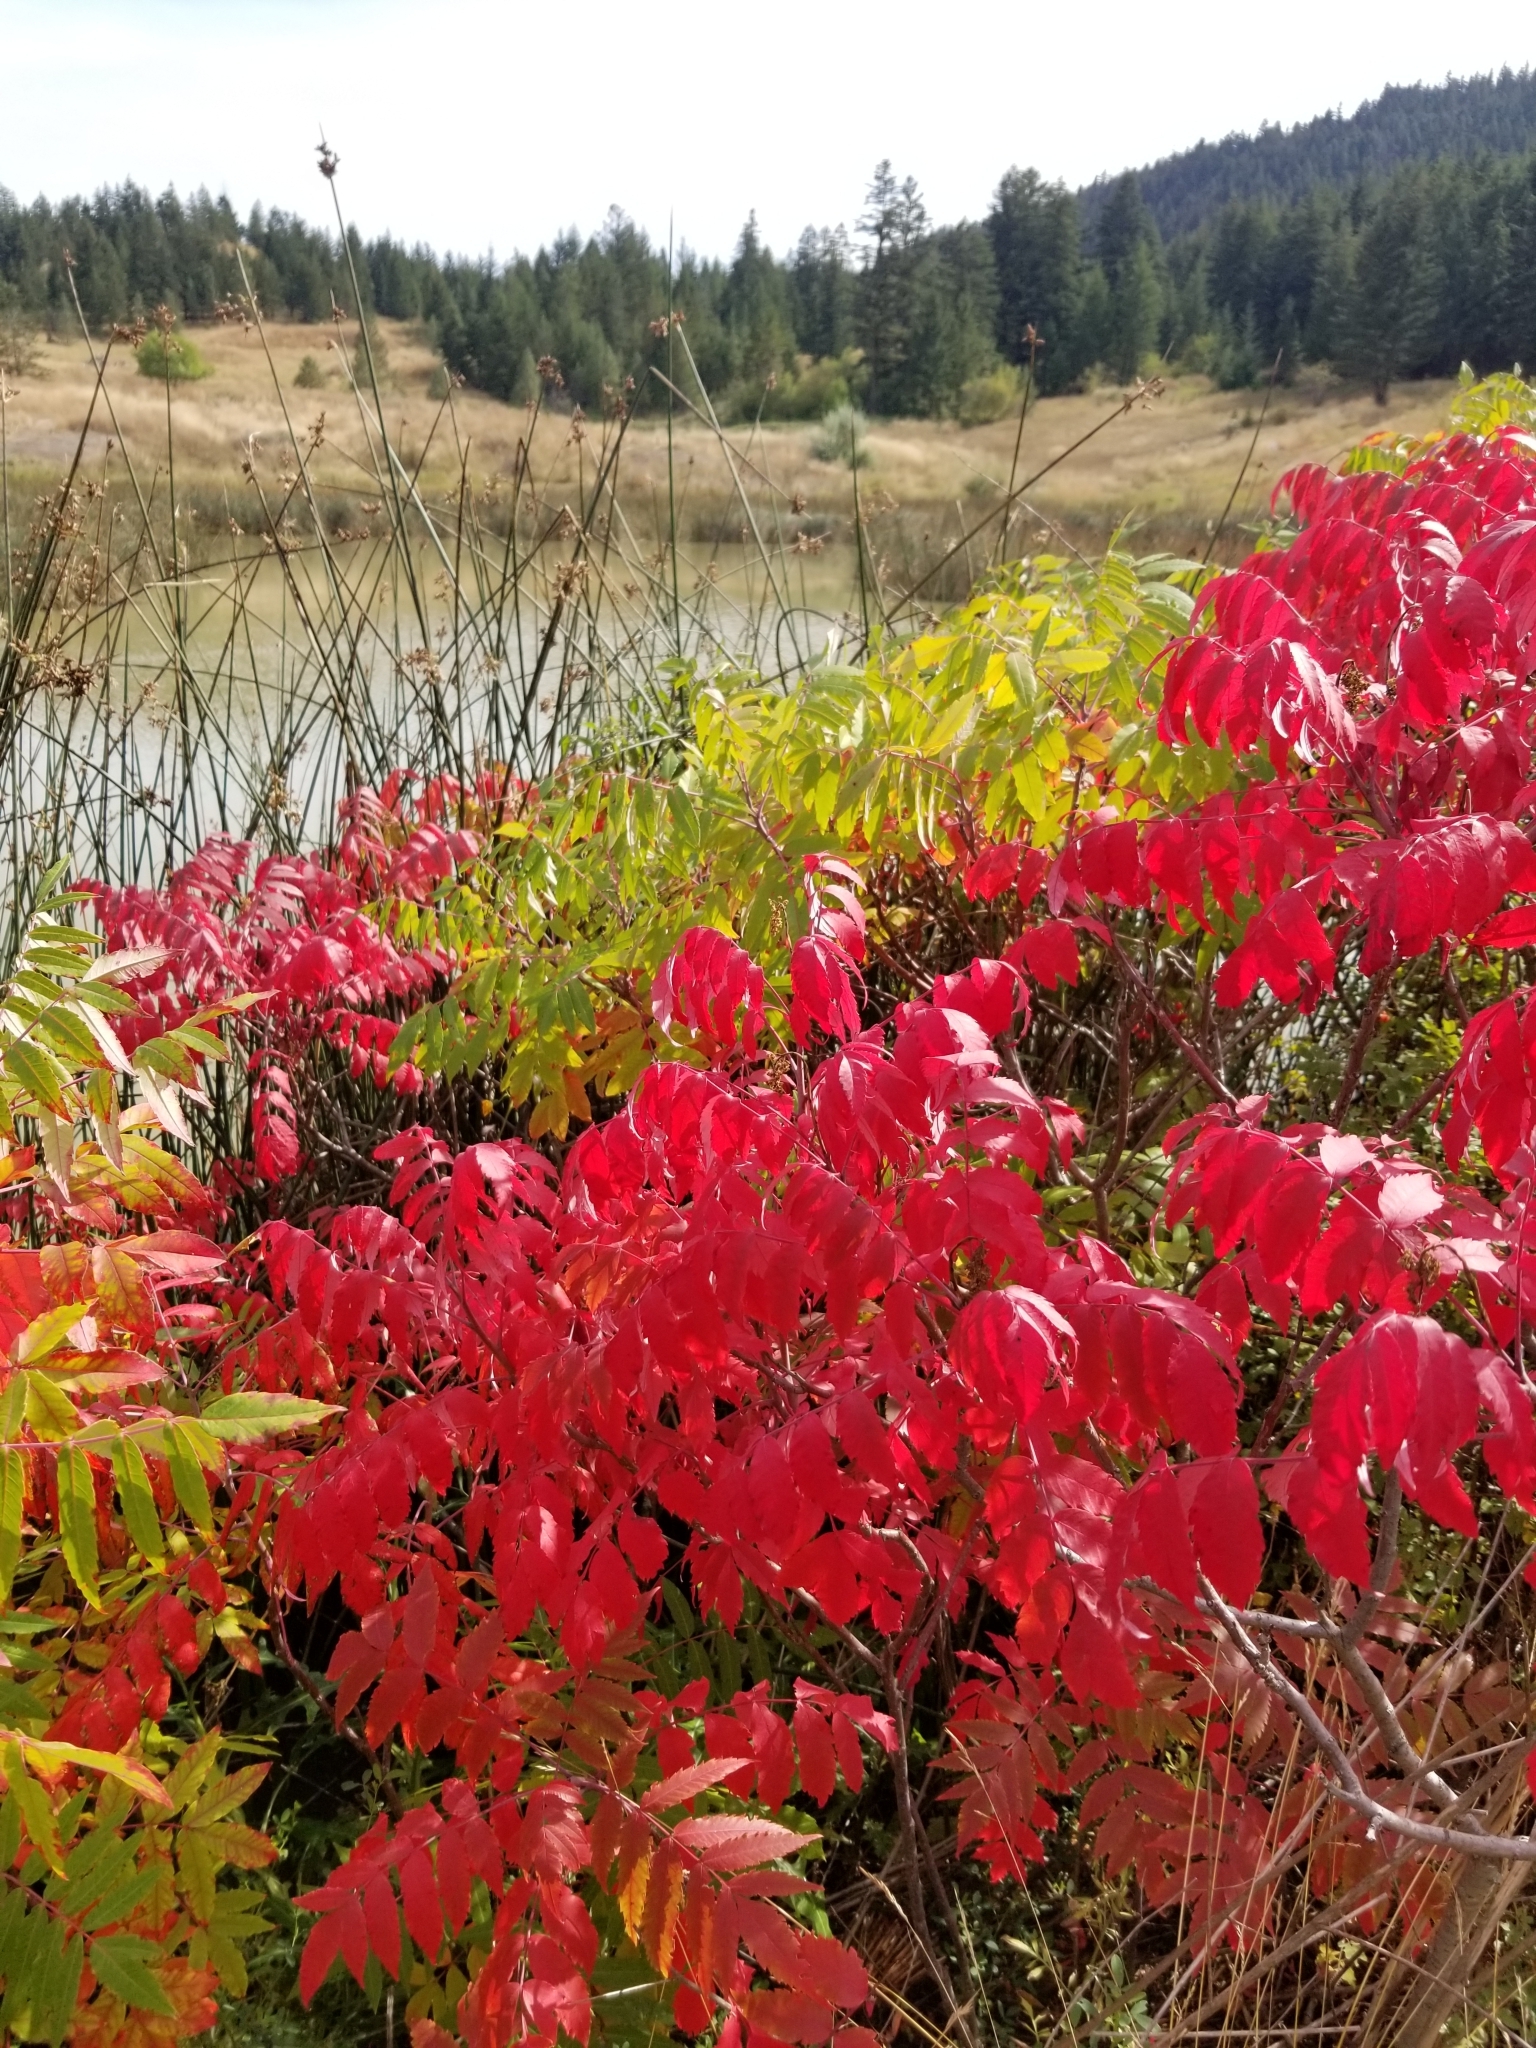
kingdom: Plantae
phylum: Tracheophyta
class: Magnoliopsida
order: Sapindales
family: Anacardiaceae
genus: Rhus
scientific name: Rhus glabra
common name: Scarlet sumac
